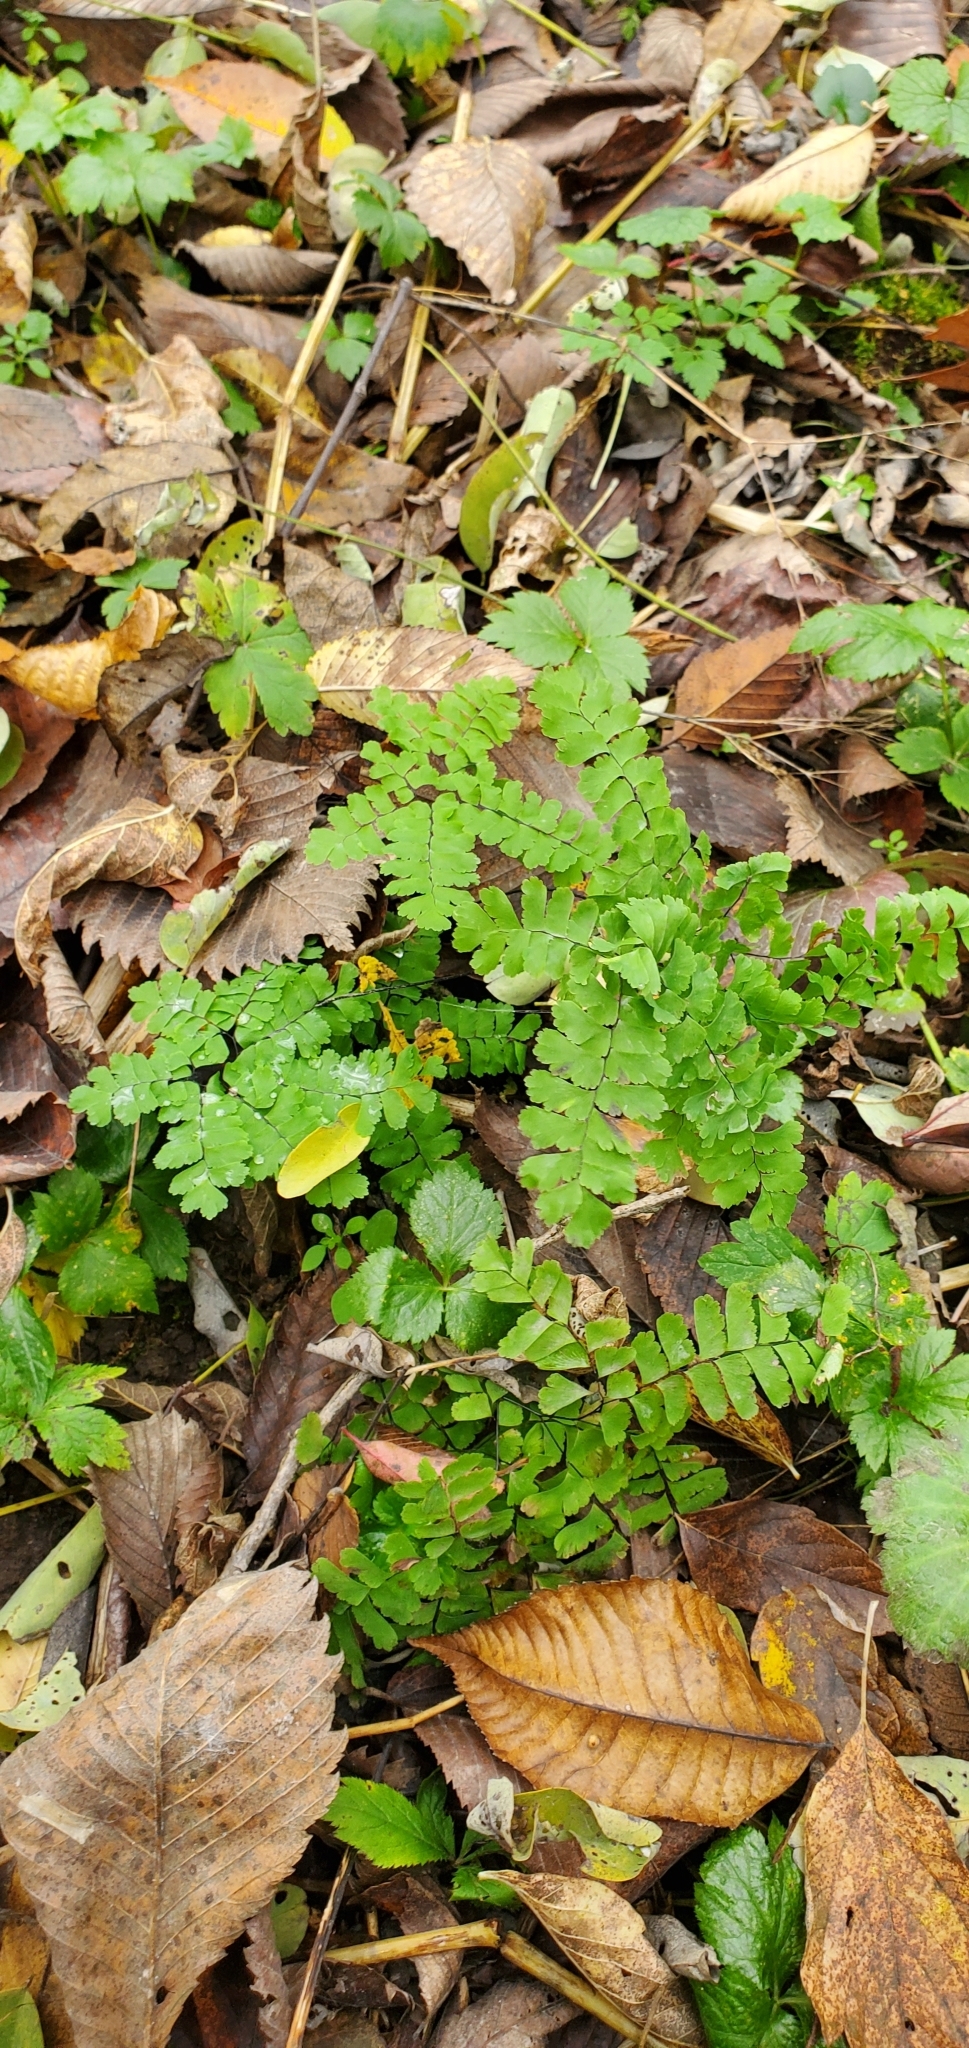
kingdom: Plantae
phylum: Tracheophyta
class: Polypodiopsida
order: Polypodiales
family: Pteridaceae
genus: Adiantum
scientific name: Adiantum pedatum
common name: Five-finger fern
